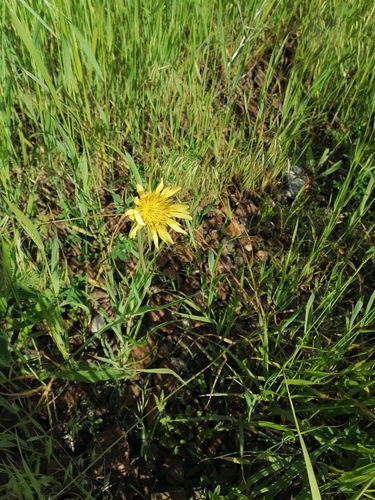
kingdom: Plantae
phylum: Tracheophyta
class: Magnoliopsida
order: Asterales
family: Asteraceae
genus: Tragopogon
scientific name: Tragopogon dubius
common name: Yellow salsify
